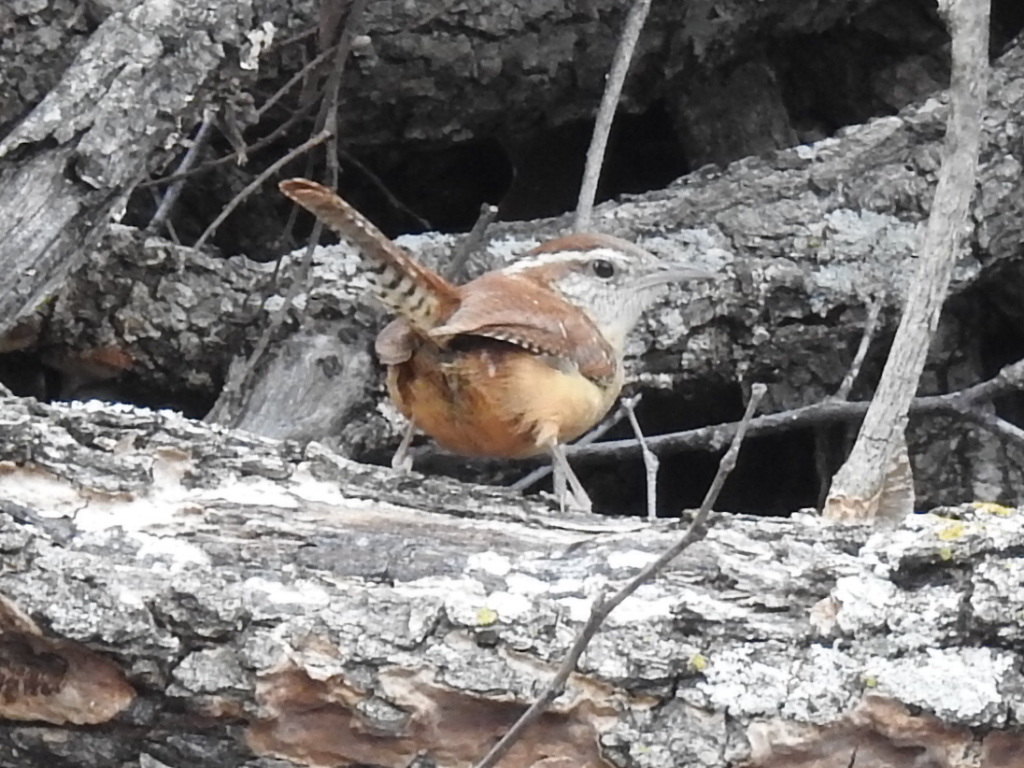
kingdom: Animalia
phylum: Chordata
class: Aves
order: Passeriformes
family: Troglodytidae
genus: Thryothorus
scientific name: Thryothorus ludovicianus
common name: Carolina wren
